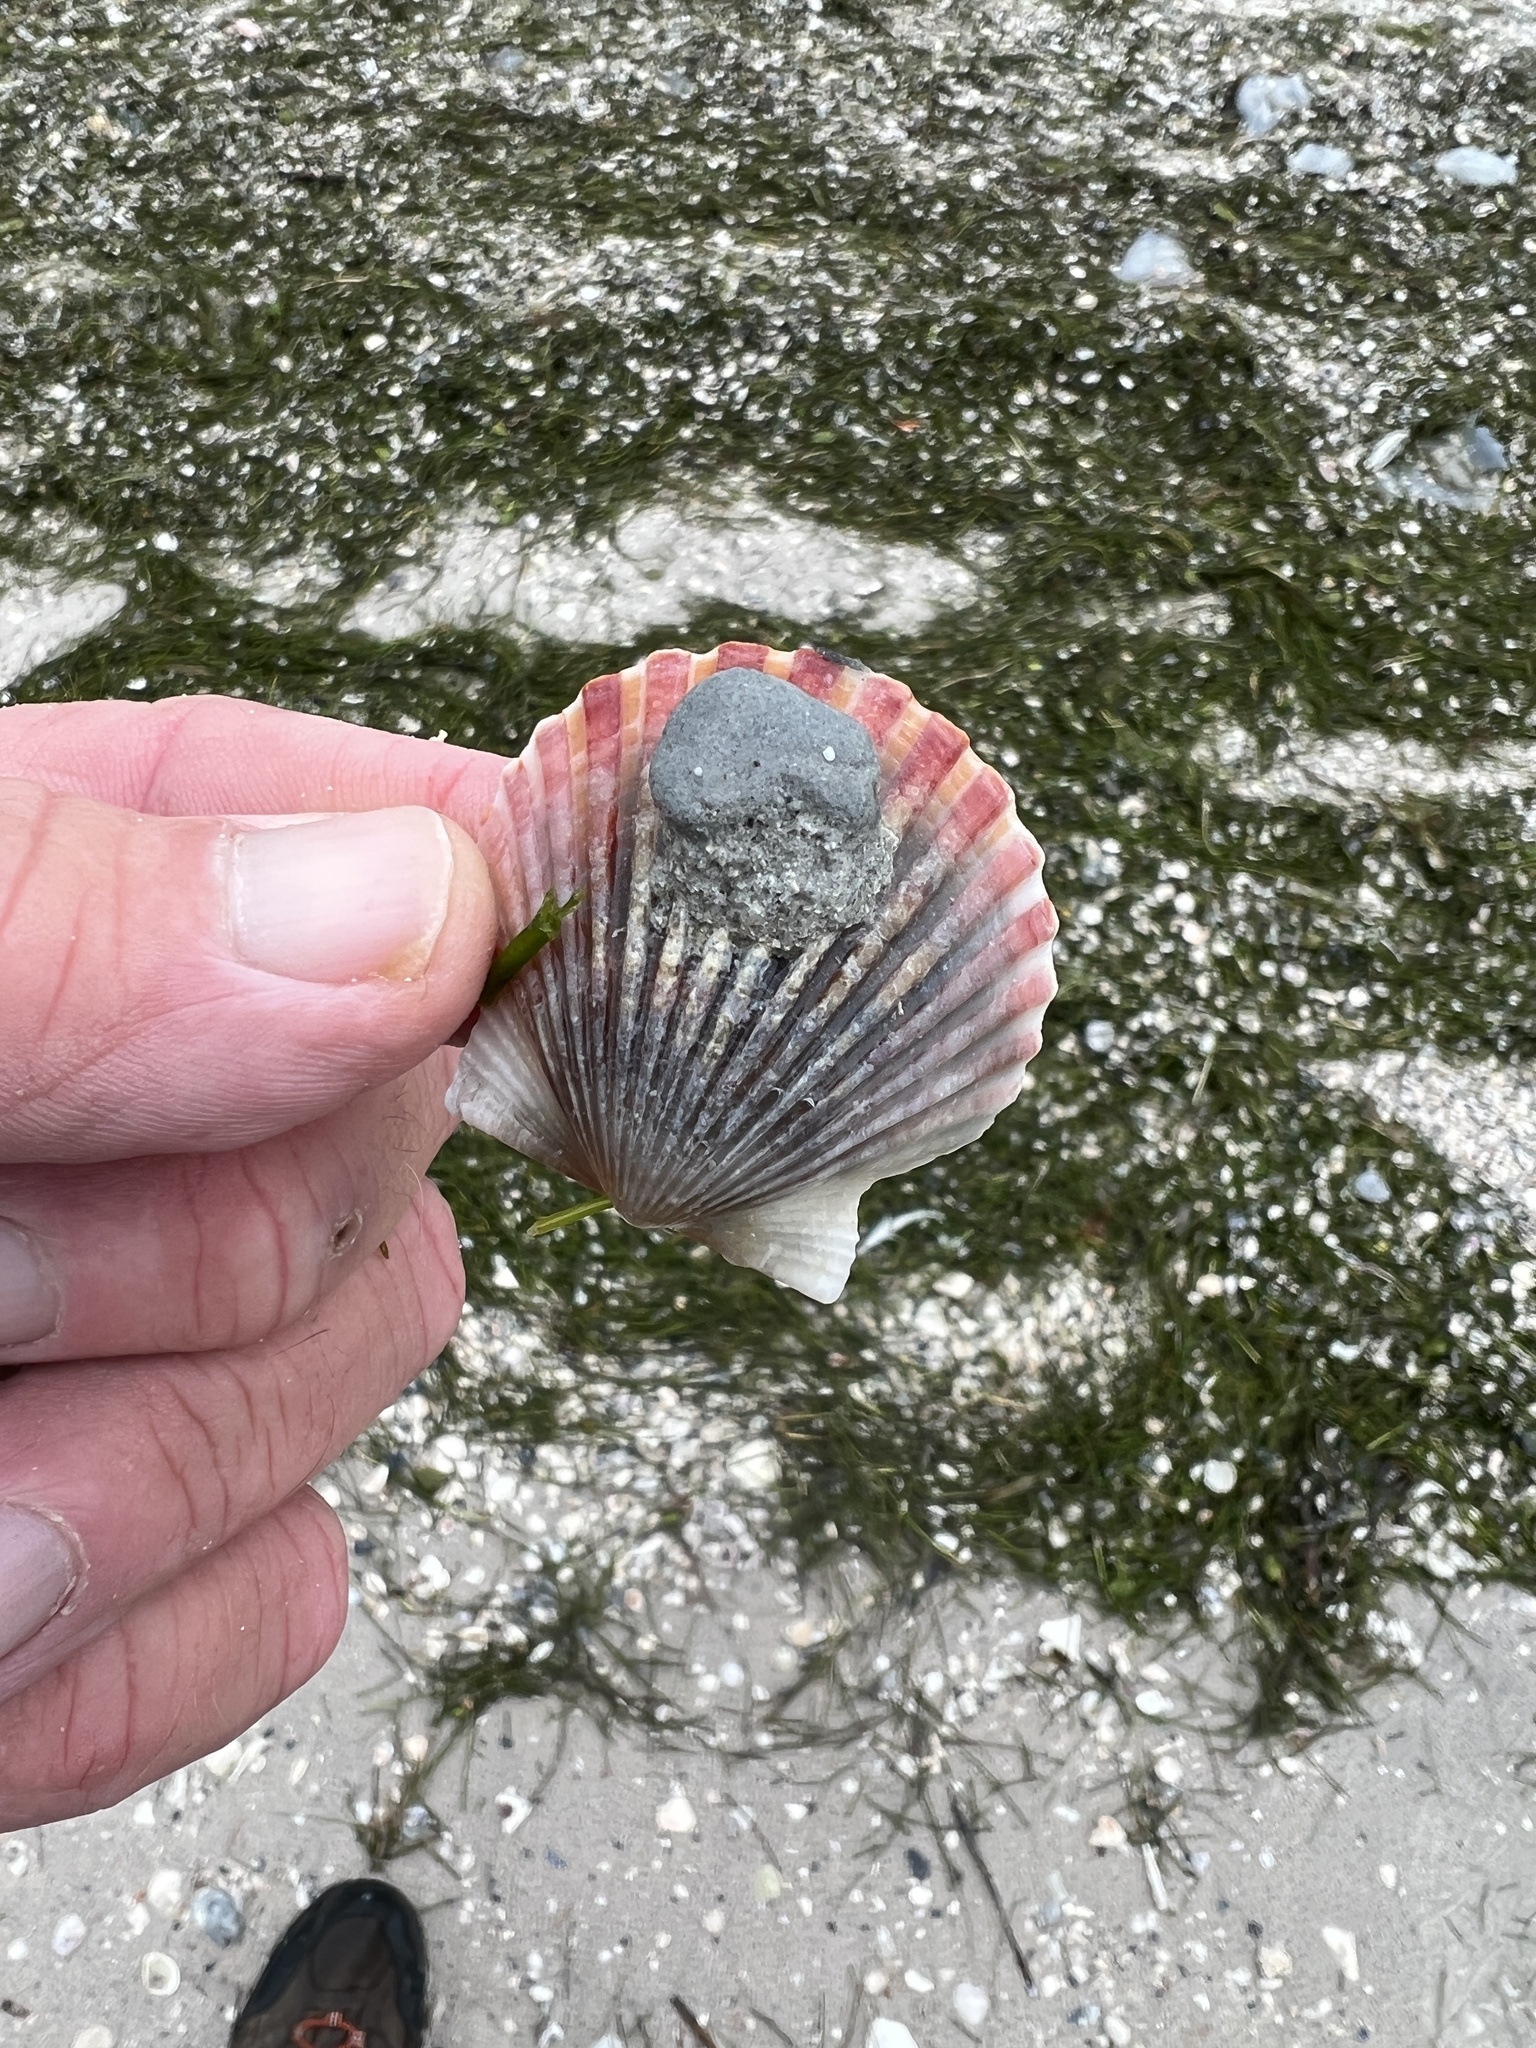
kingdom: Animalia
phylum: Mollusca
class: Bivalvia
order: Pectinida
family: Pectinidae
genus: Argopecten
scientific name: Argopecten irradians
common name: Atlantic bay scallop
